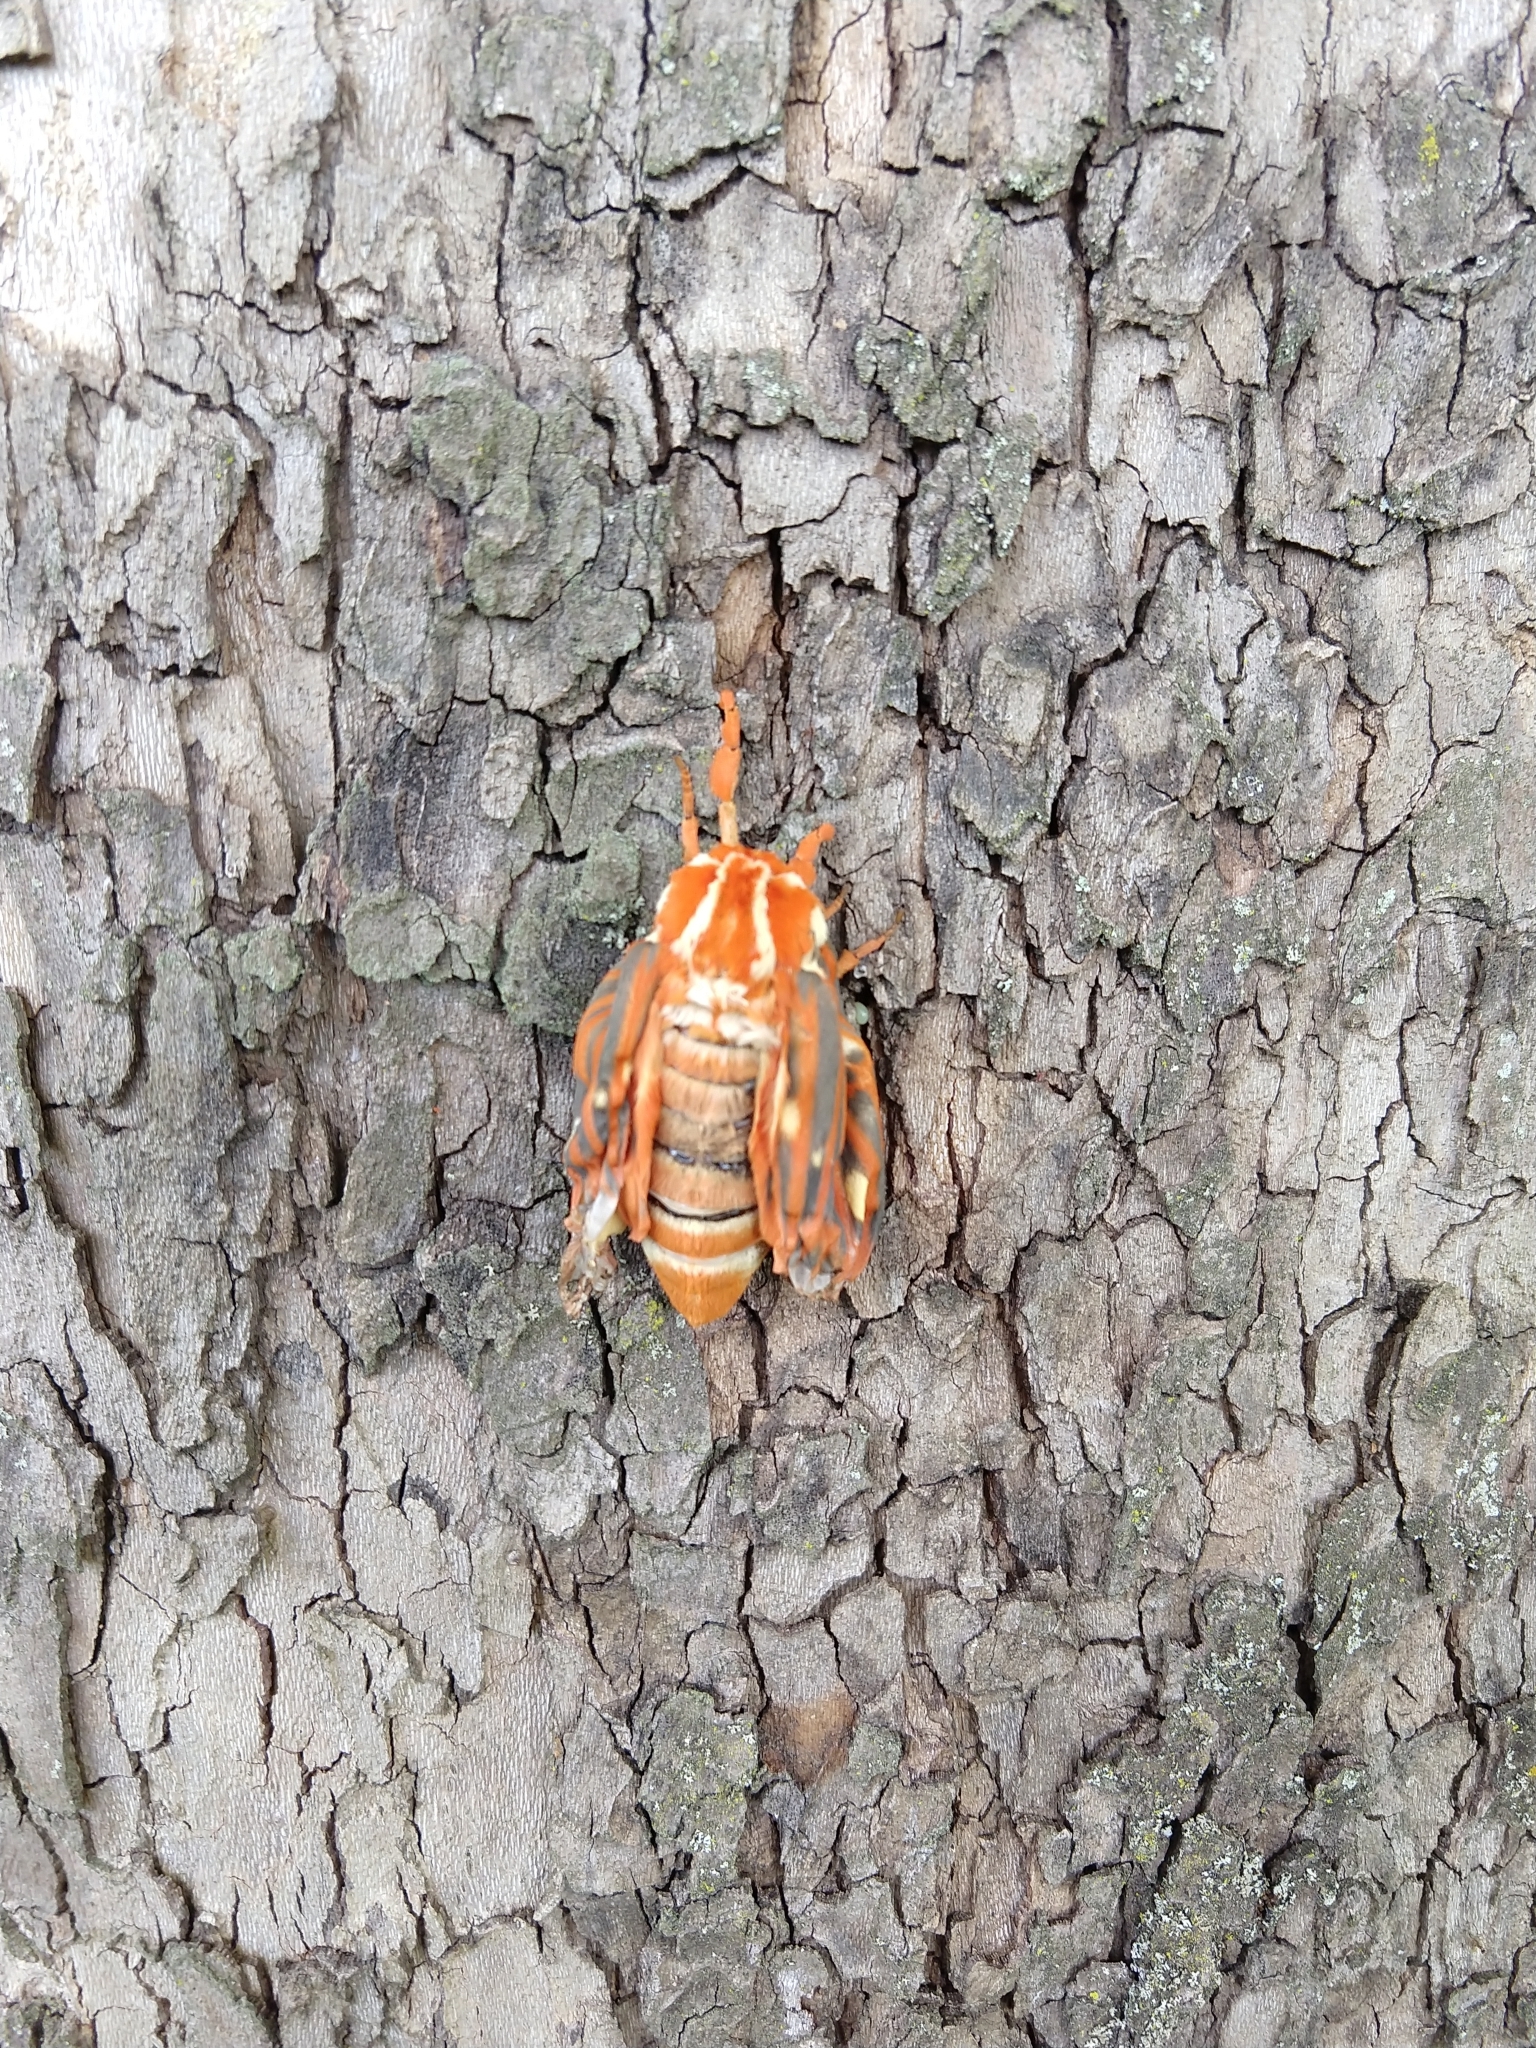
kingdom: Animalia
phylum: Arthropoda
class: Insecta
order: Lepidoptera
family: Saturniidae
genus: Citheronia
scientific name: Citheronia regalis
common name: Hickory horned devil
